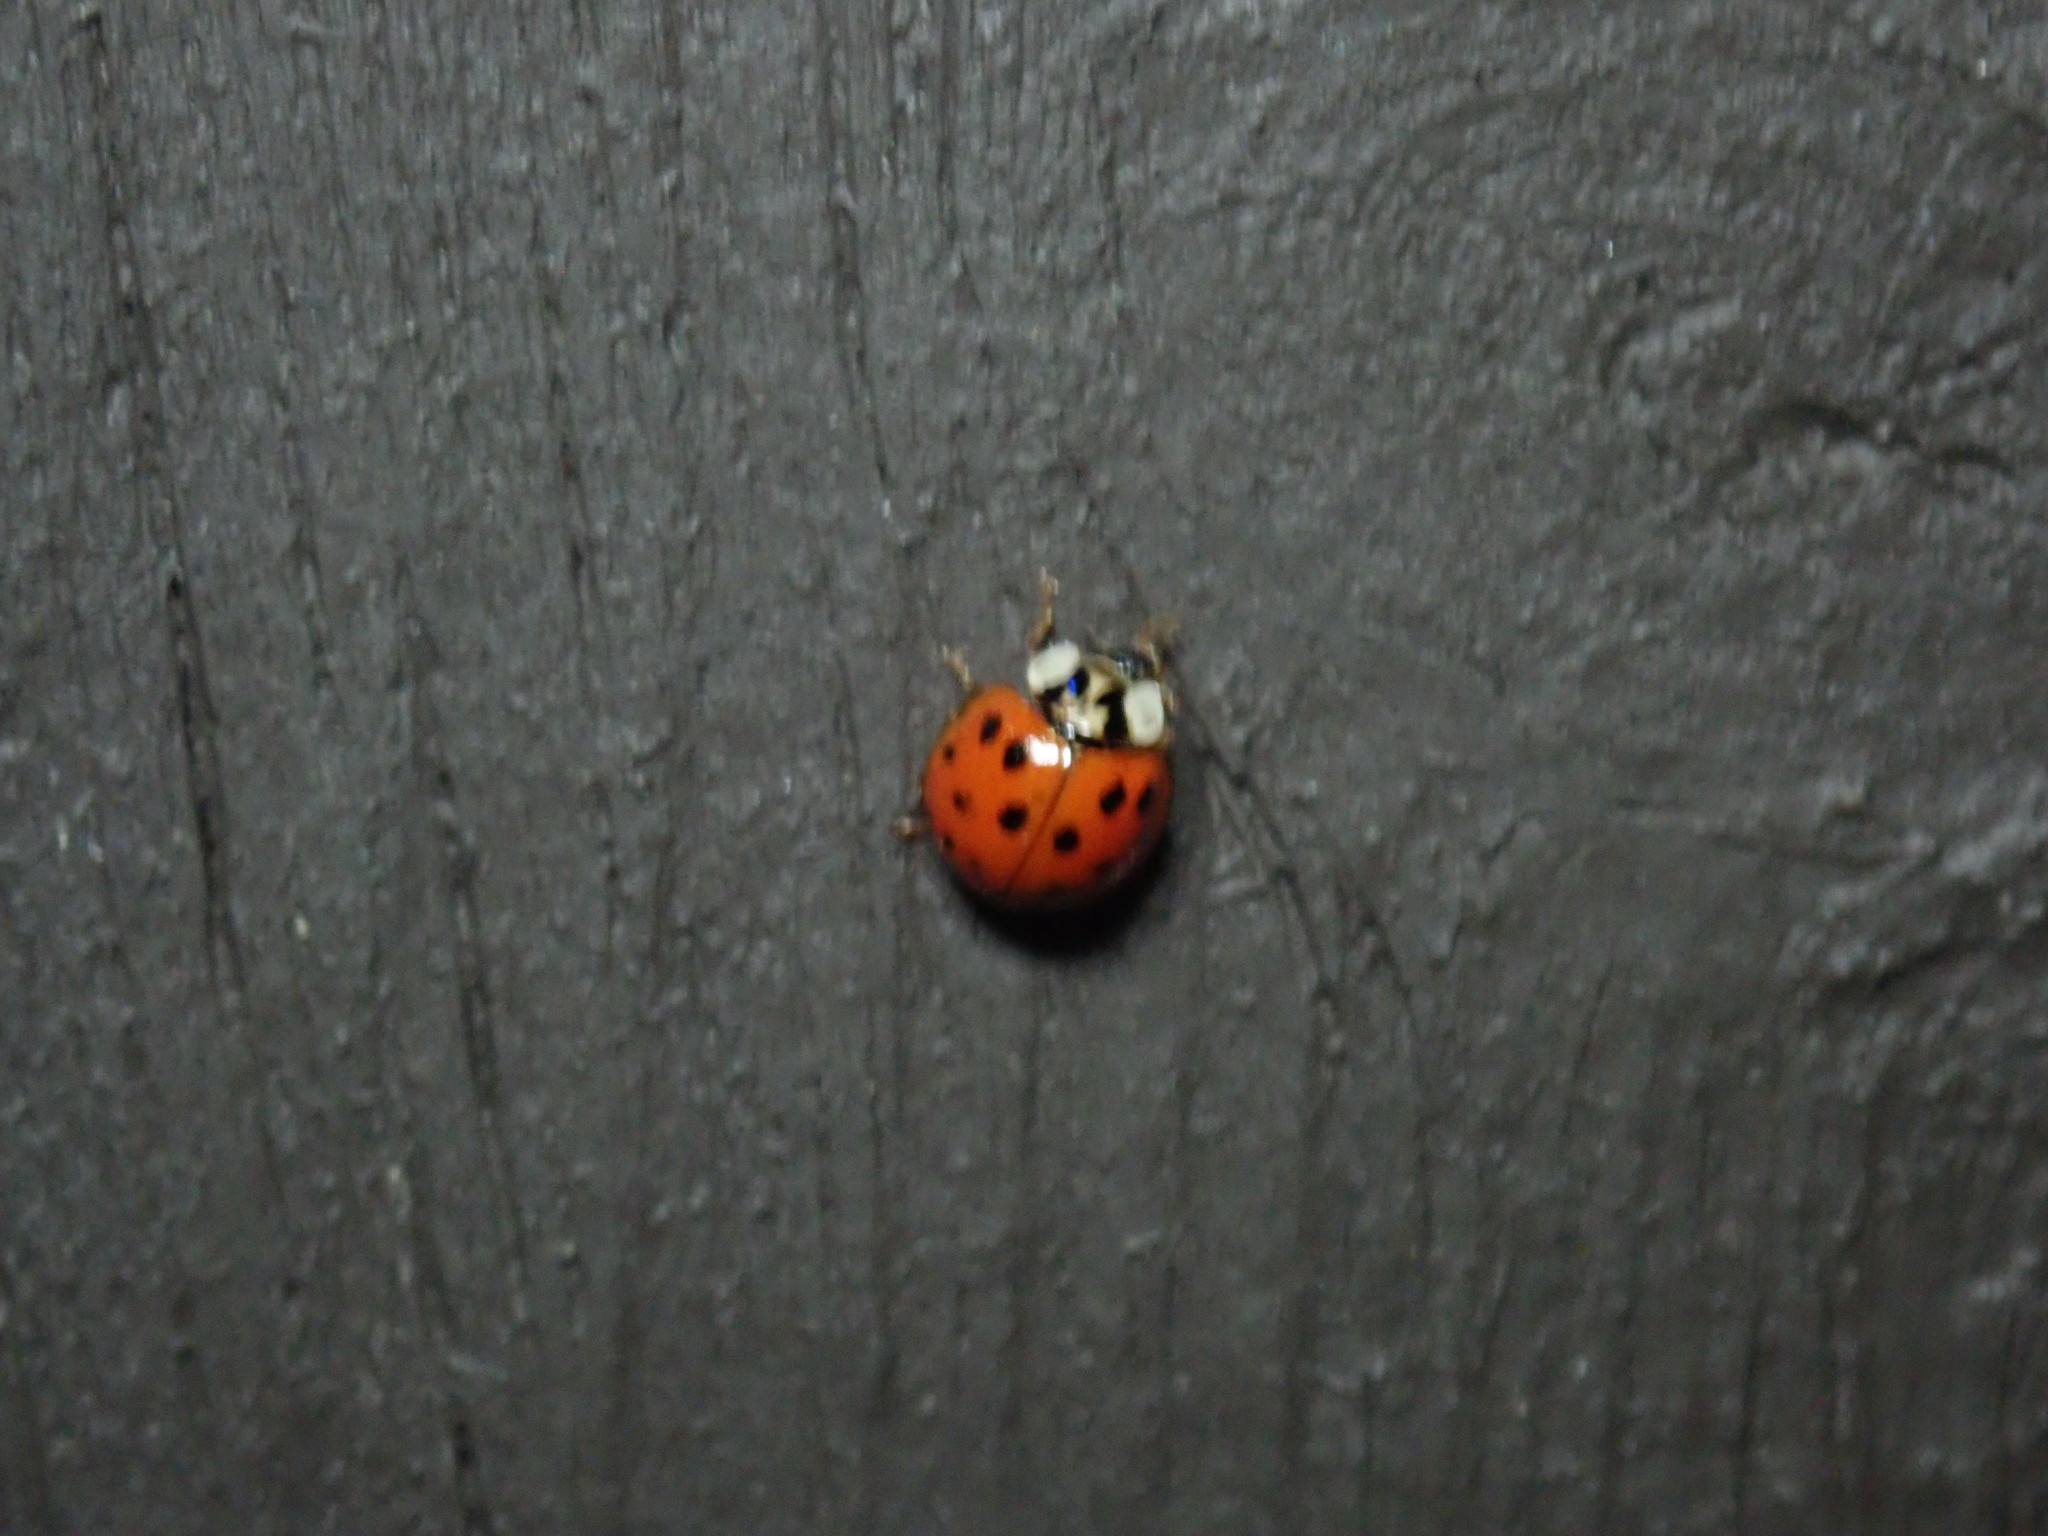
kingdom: Animalia
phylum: Arthropoda
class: Insecta
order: Coleoptera
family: Coccinellidae
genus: Harmonia
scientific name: Harmonia axyridis
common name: Harlequin ladybird
